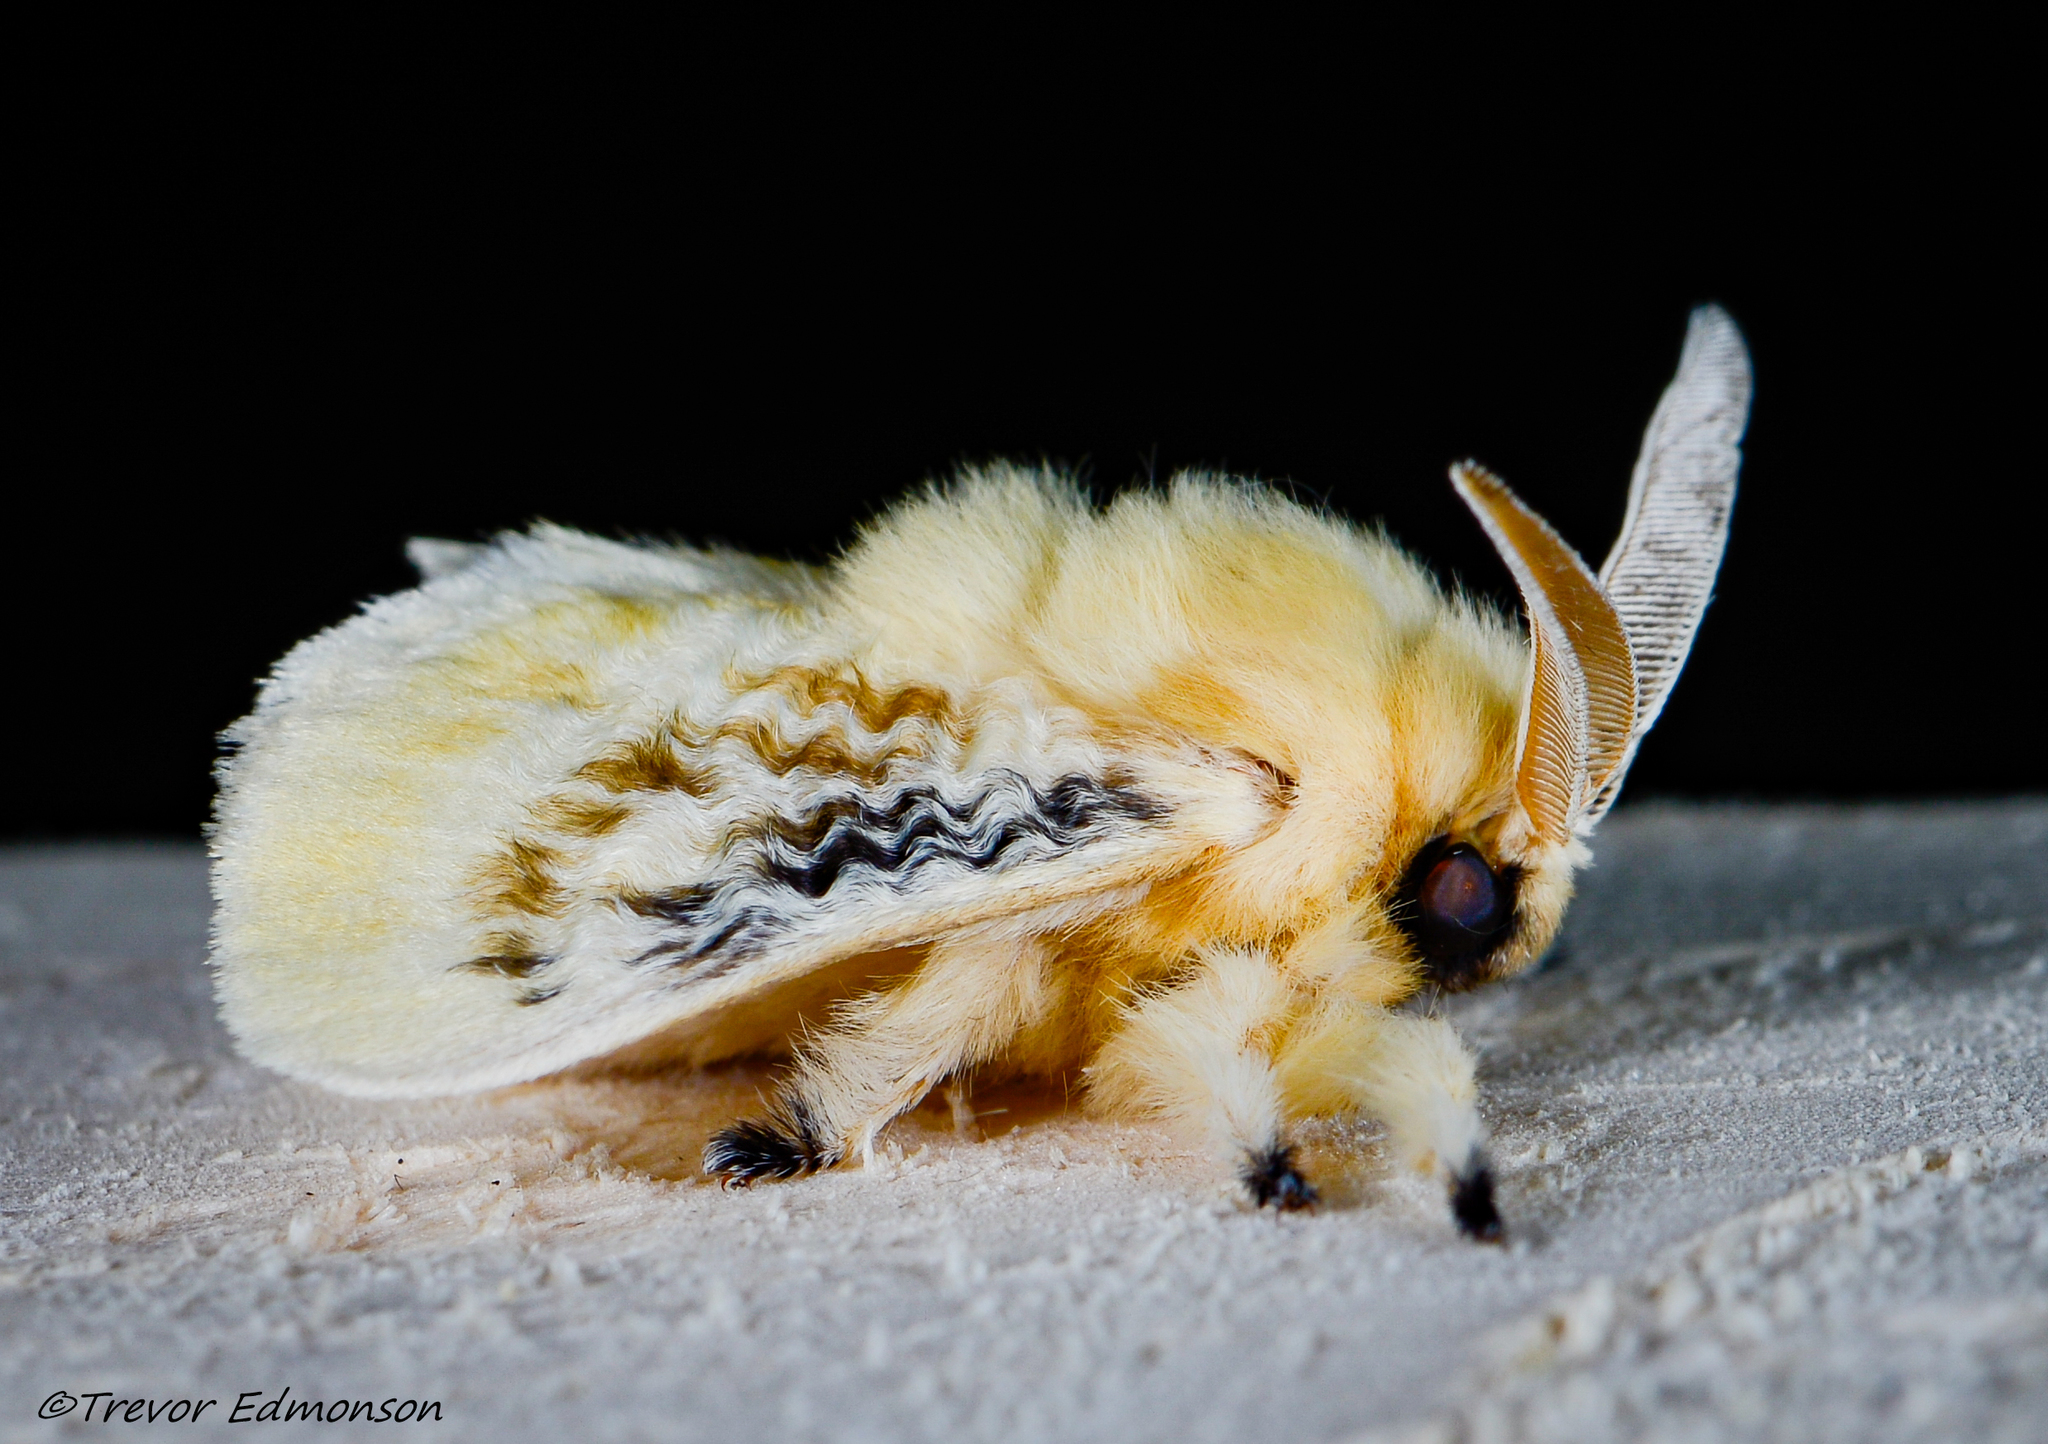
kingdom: Animalia
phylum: Arthropoda
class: Insecta
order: Lepidoptera
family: Megalopygidae
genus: Megalopyge
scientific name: Megalopyge crispata
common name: Black-waved flannel moth
